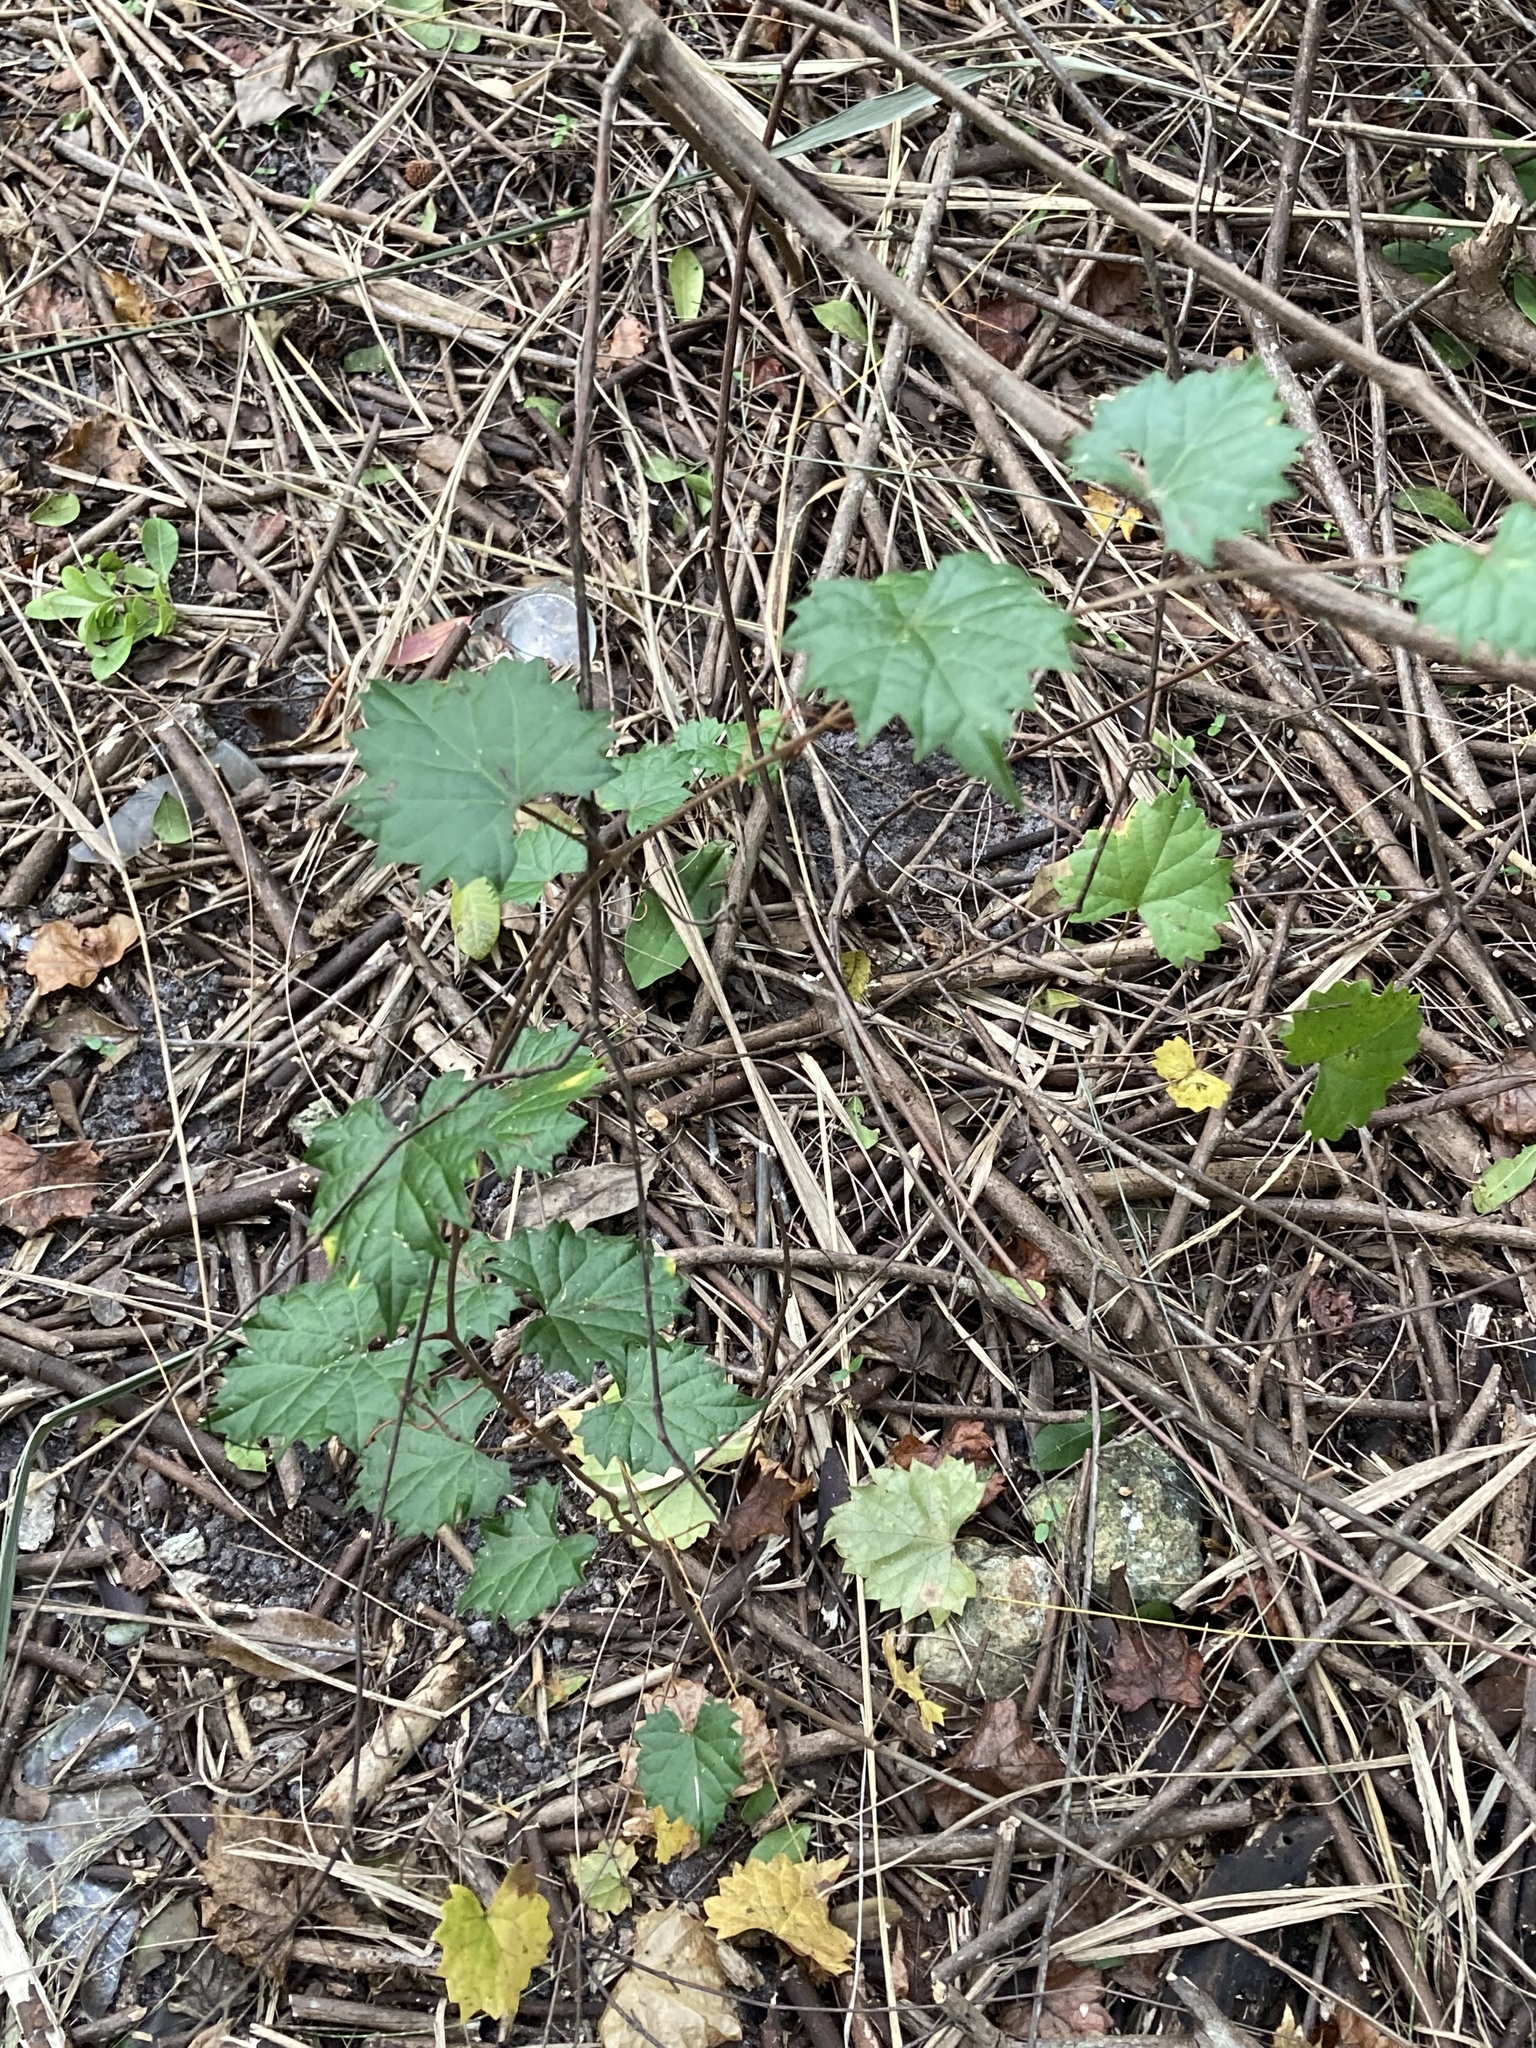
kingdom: Plantae
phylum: Tracheophyta
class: Magnoliopsida
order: Vitales
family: Vitaceae
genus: Vitis
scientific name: Vitis rotundifolia
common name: Muscadine grape
